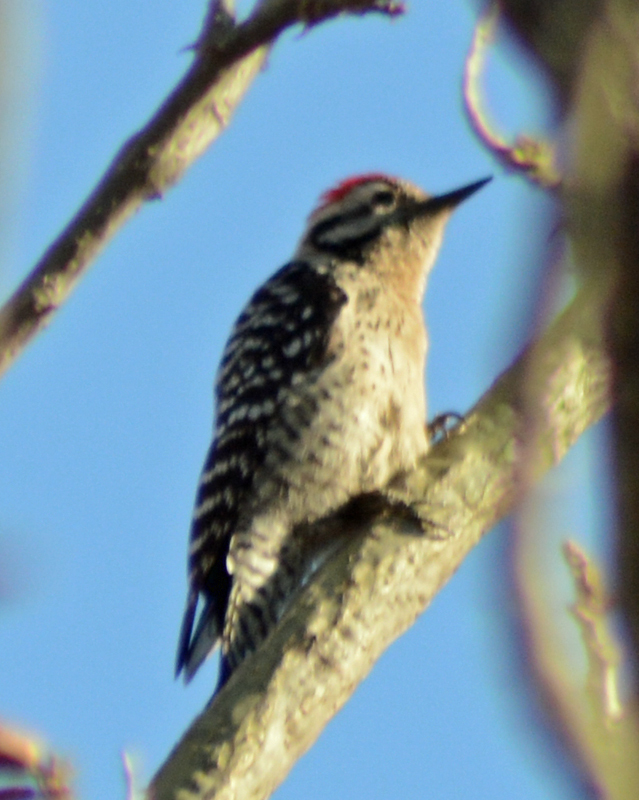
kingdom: Animalia
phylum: Chordata
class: Aves
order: Piciformes
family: Picidae
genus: Dryobates
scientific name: Dryobates scalaris
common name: Ladder-backed woodpecker
